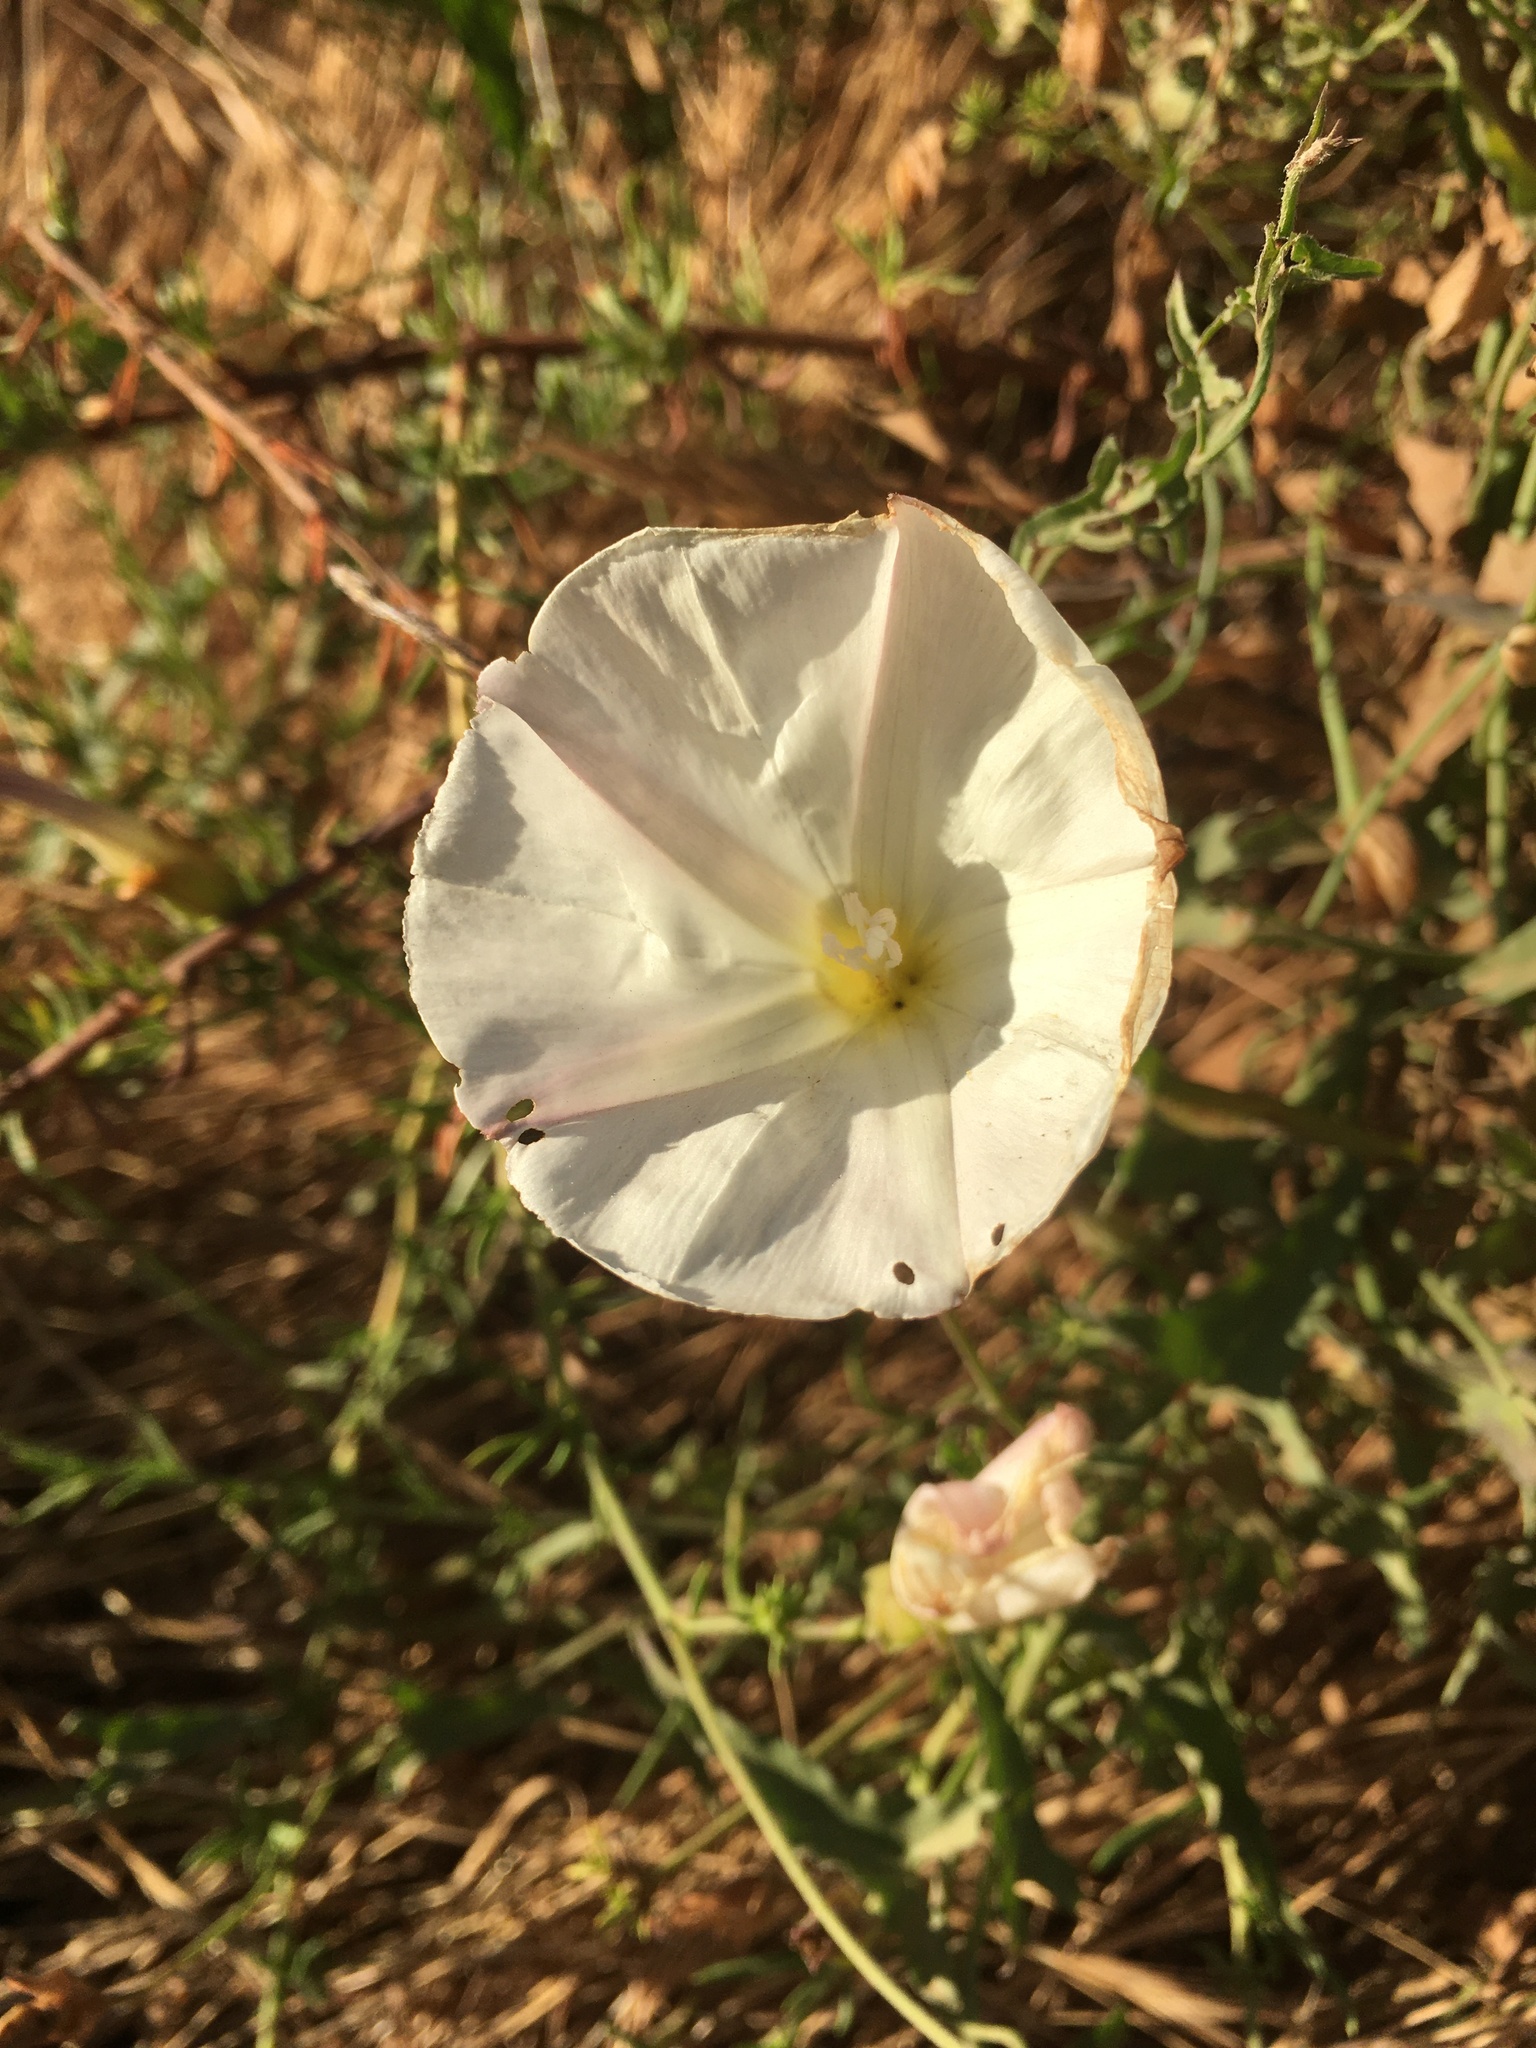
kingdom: Plantae
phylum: Tracheophyta
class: Magnoliopsida
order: Solanales
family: Convolvulaceae
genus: Calystegia
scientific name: Calystegia macrostegia
